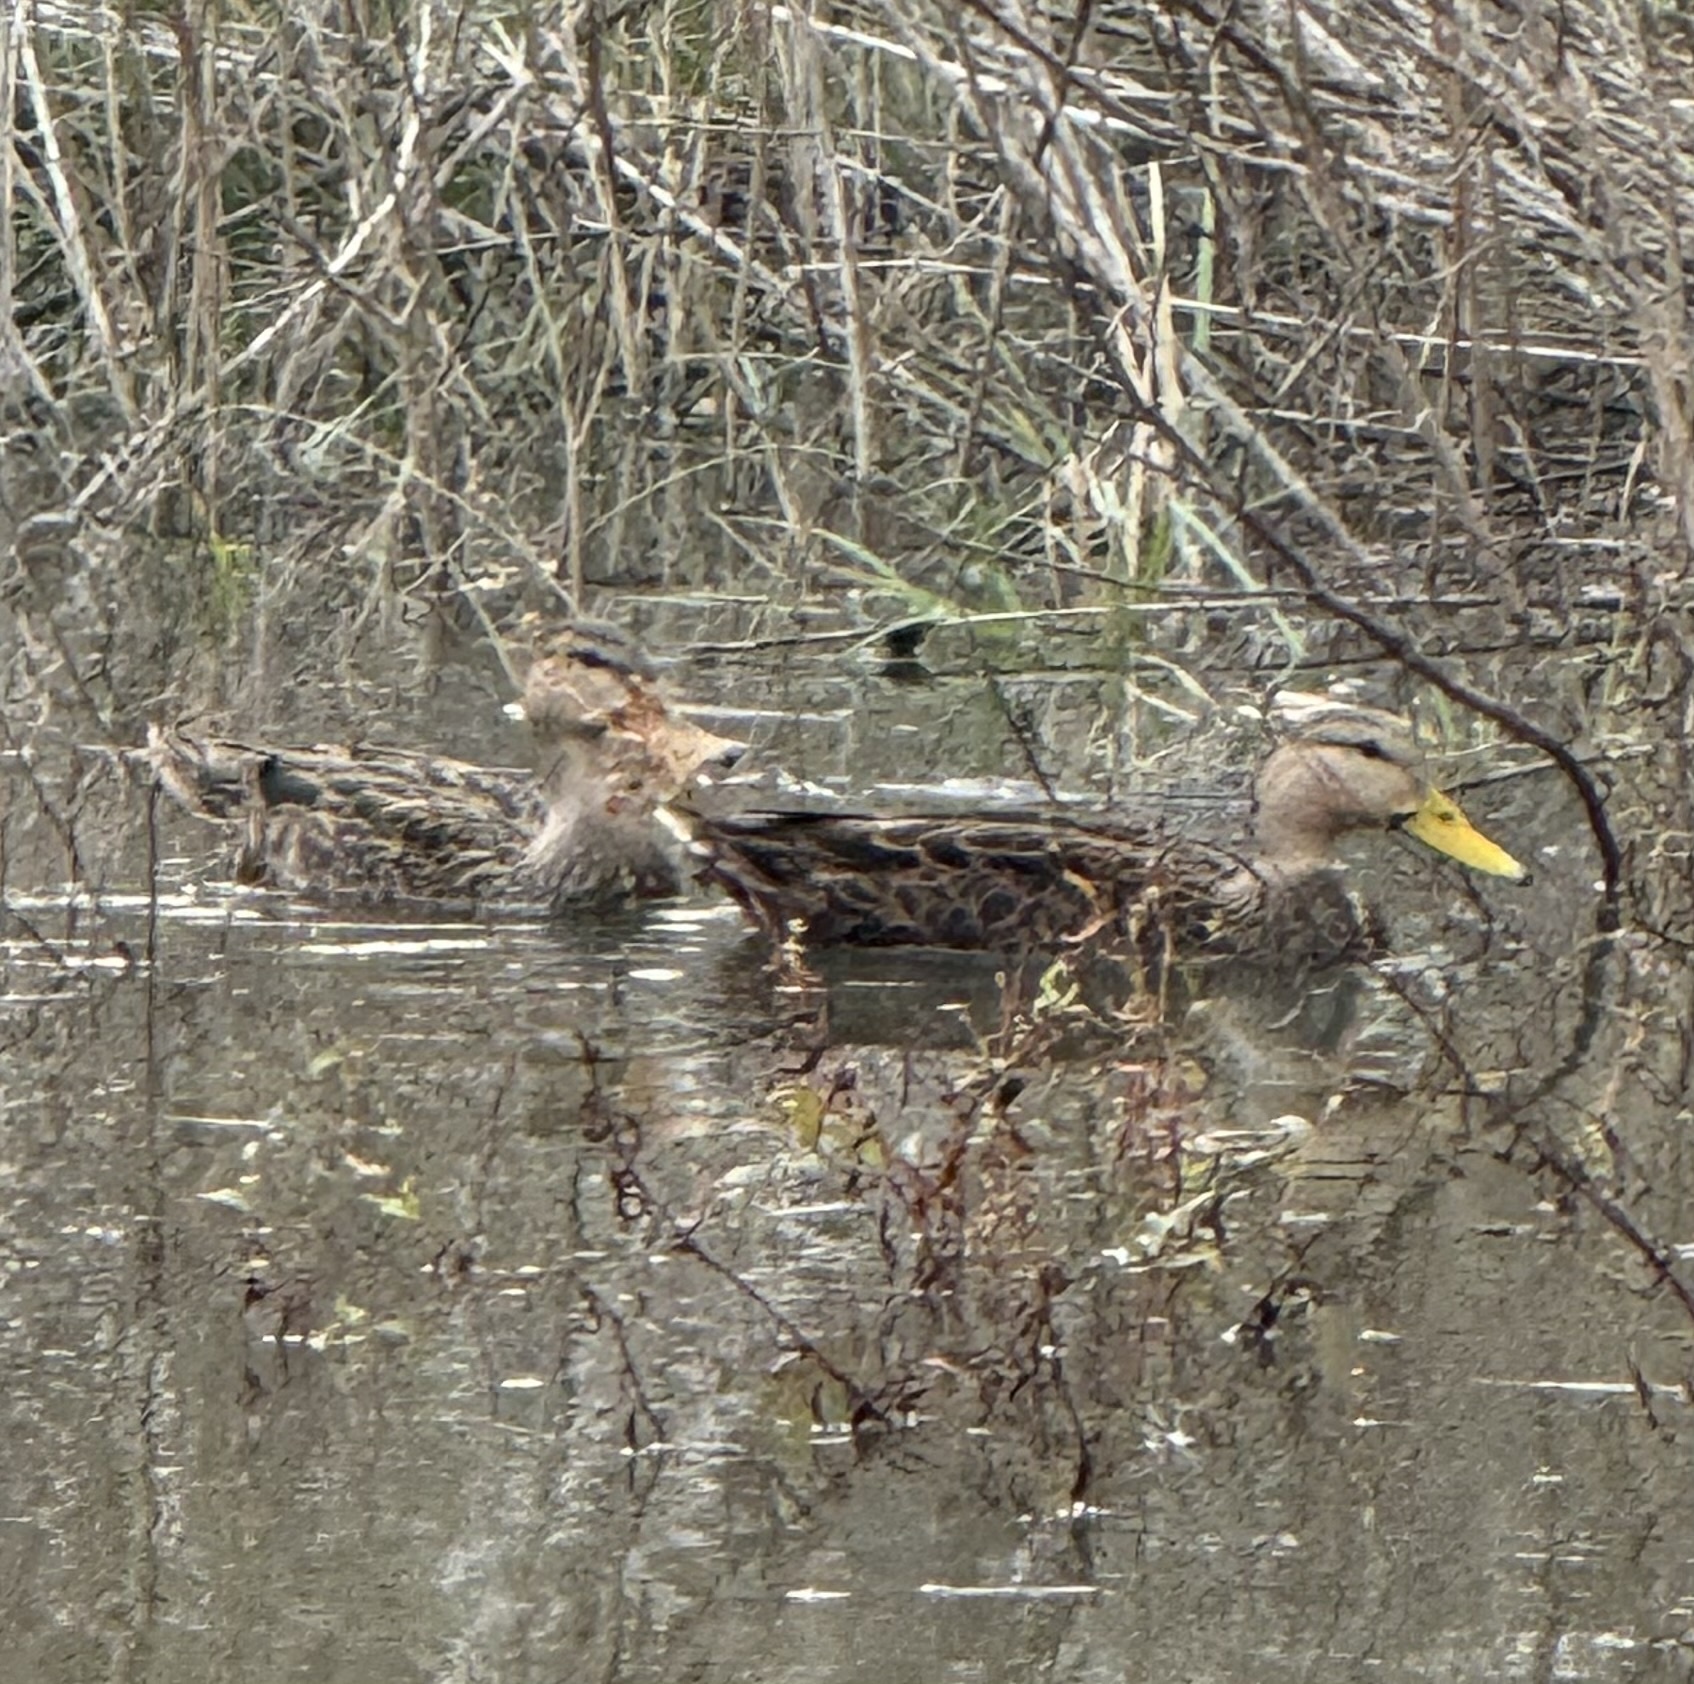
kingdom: Animalia
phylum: Chordata
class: Aves
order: Anseriformes
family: Anatidae
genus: Anas
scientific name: Anas fulvigula
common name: Mottled duck
